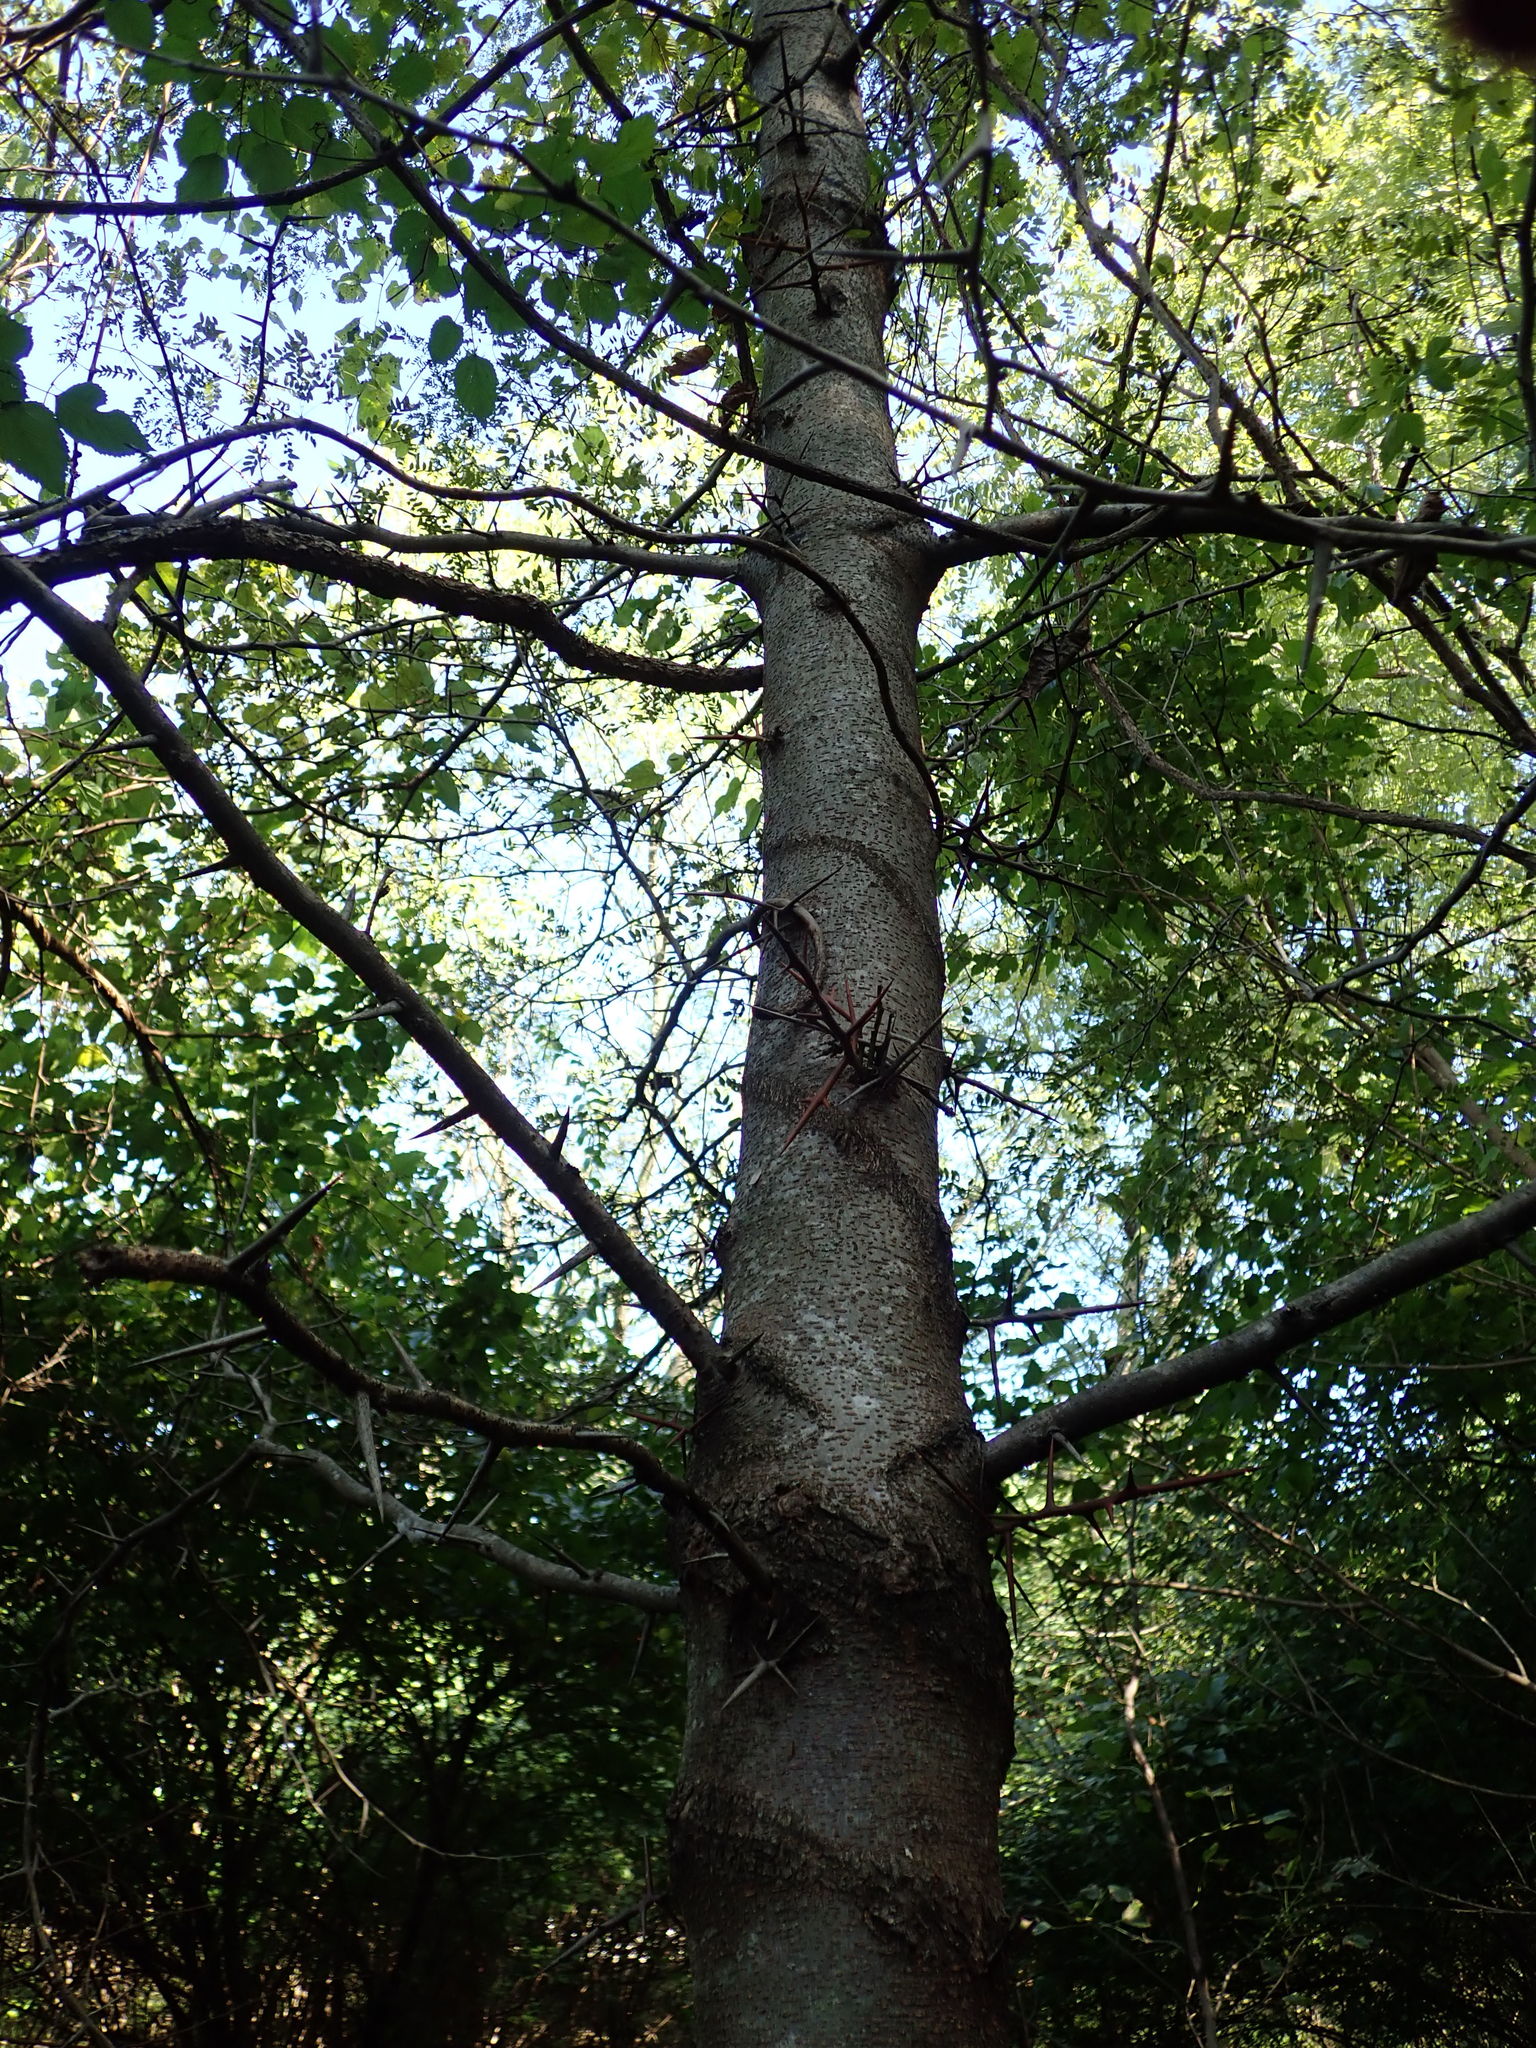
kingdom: Plantae
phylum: Tracheophyta
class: Magnoliopsida
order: Fabales
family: Fabaceae
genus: Gleditsia
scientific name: Gleditsia triacanthos
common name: Common honeylocust
